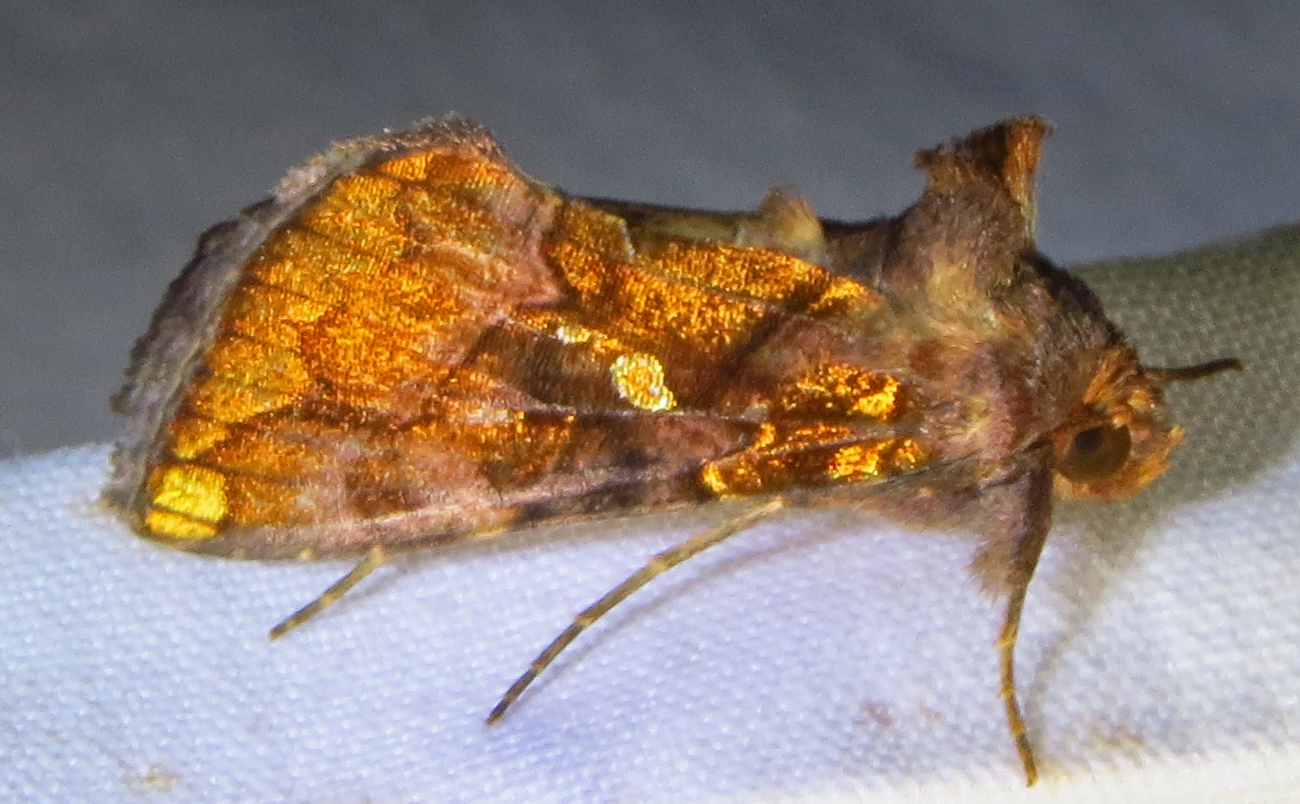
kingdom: Animalia
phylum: Arthropoda
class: Insecta
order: Lepidoptera
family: Noctuidae
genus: Argyrogramma
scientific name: Argyrogramma verruca
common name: Golden looper moth
